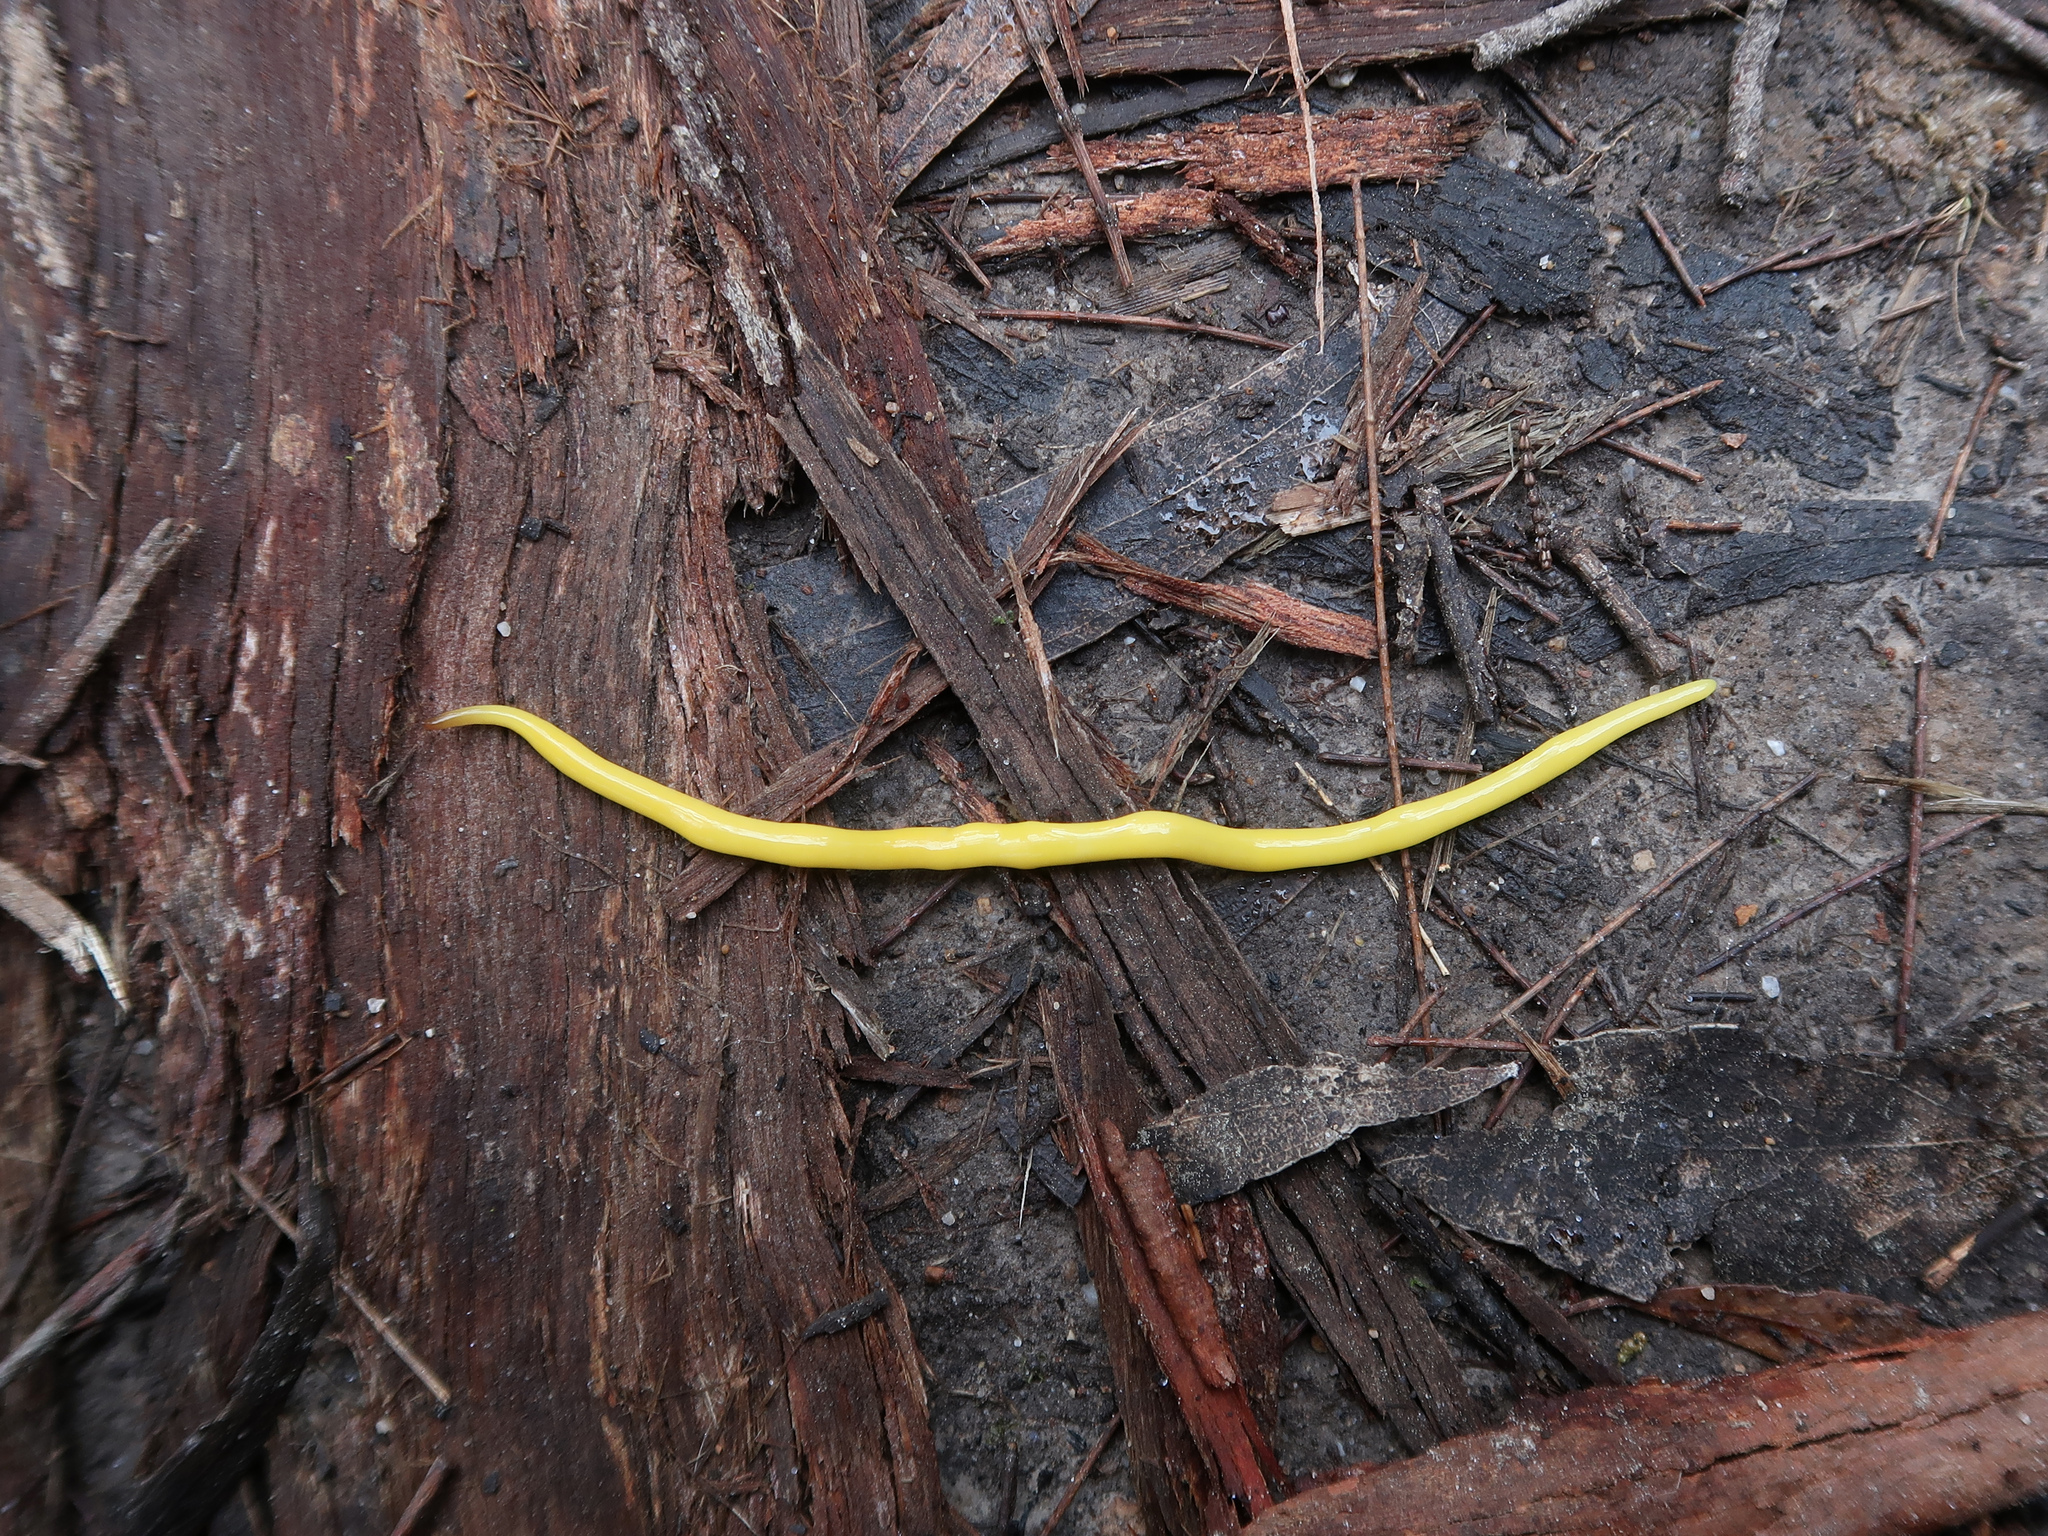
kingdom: Animalia
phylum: Platyhelminthes
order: Tricladida
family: Geoplanidae
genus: Fletchamia
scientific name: Fletchamia sugdeni
